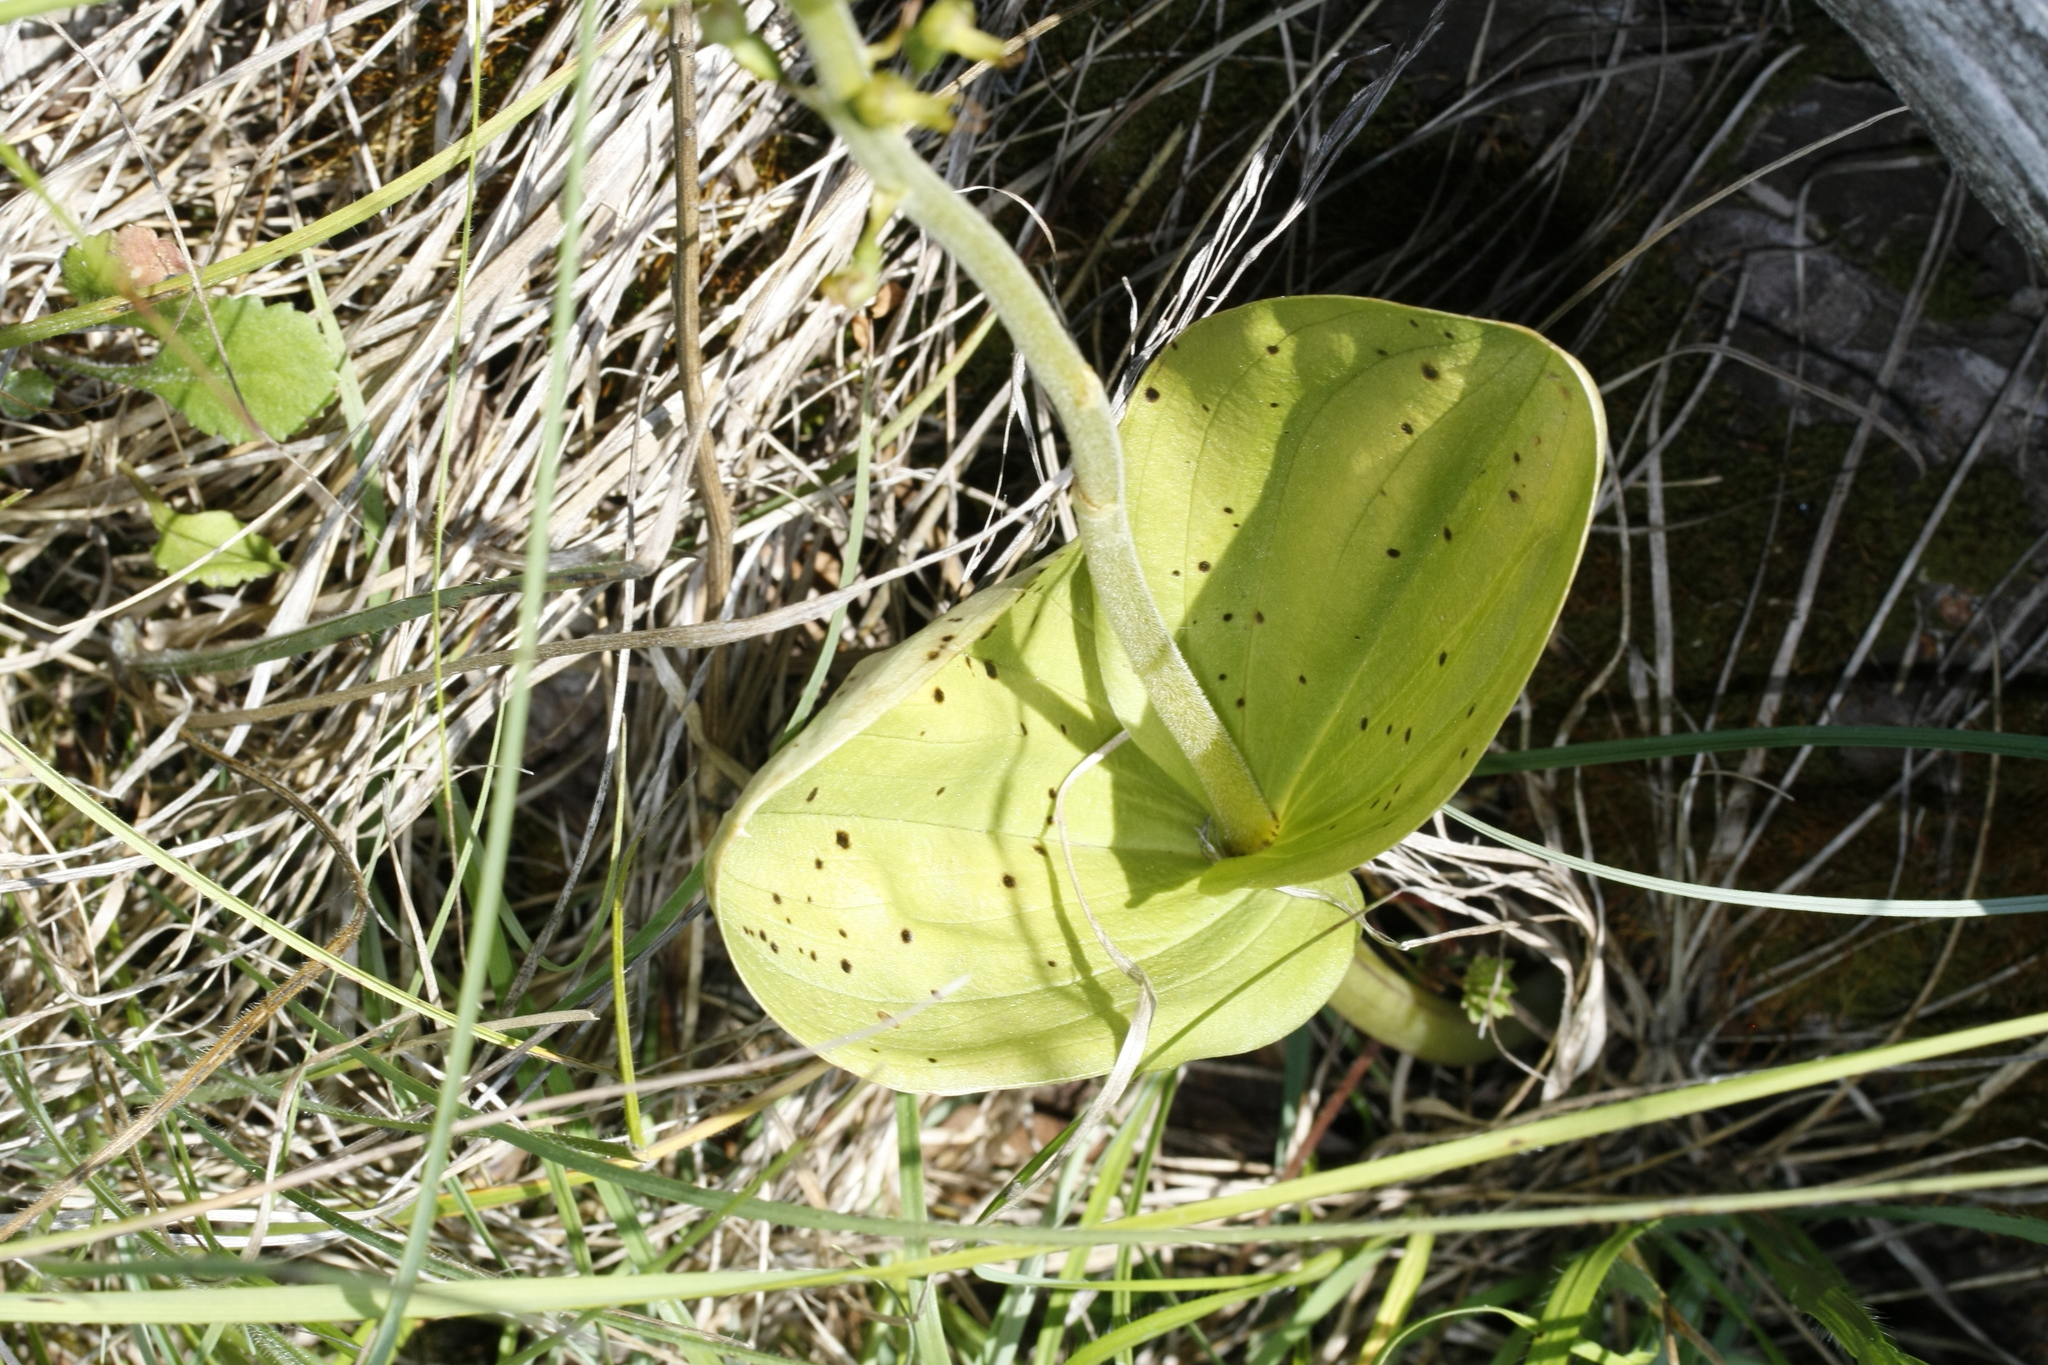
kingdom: Plantae
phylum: Tracheophyta
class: Liliopsida
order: Asparagales
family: Orchidaceae
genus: Neottia
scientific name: Neottia ovata
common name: Common twayblade
